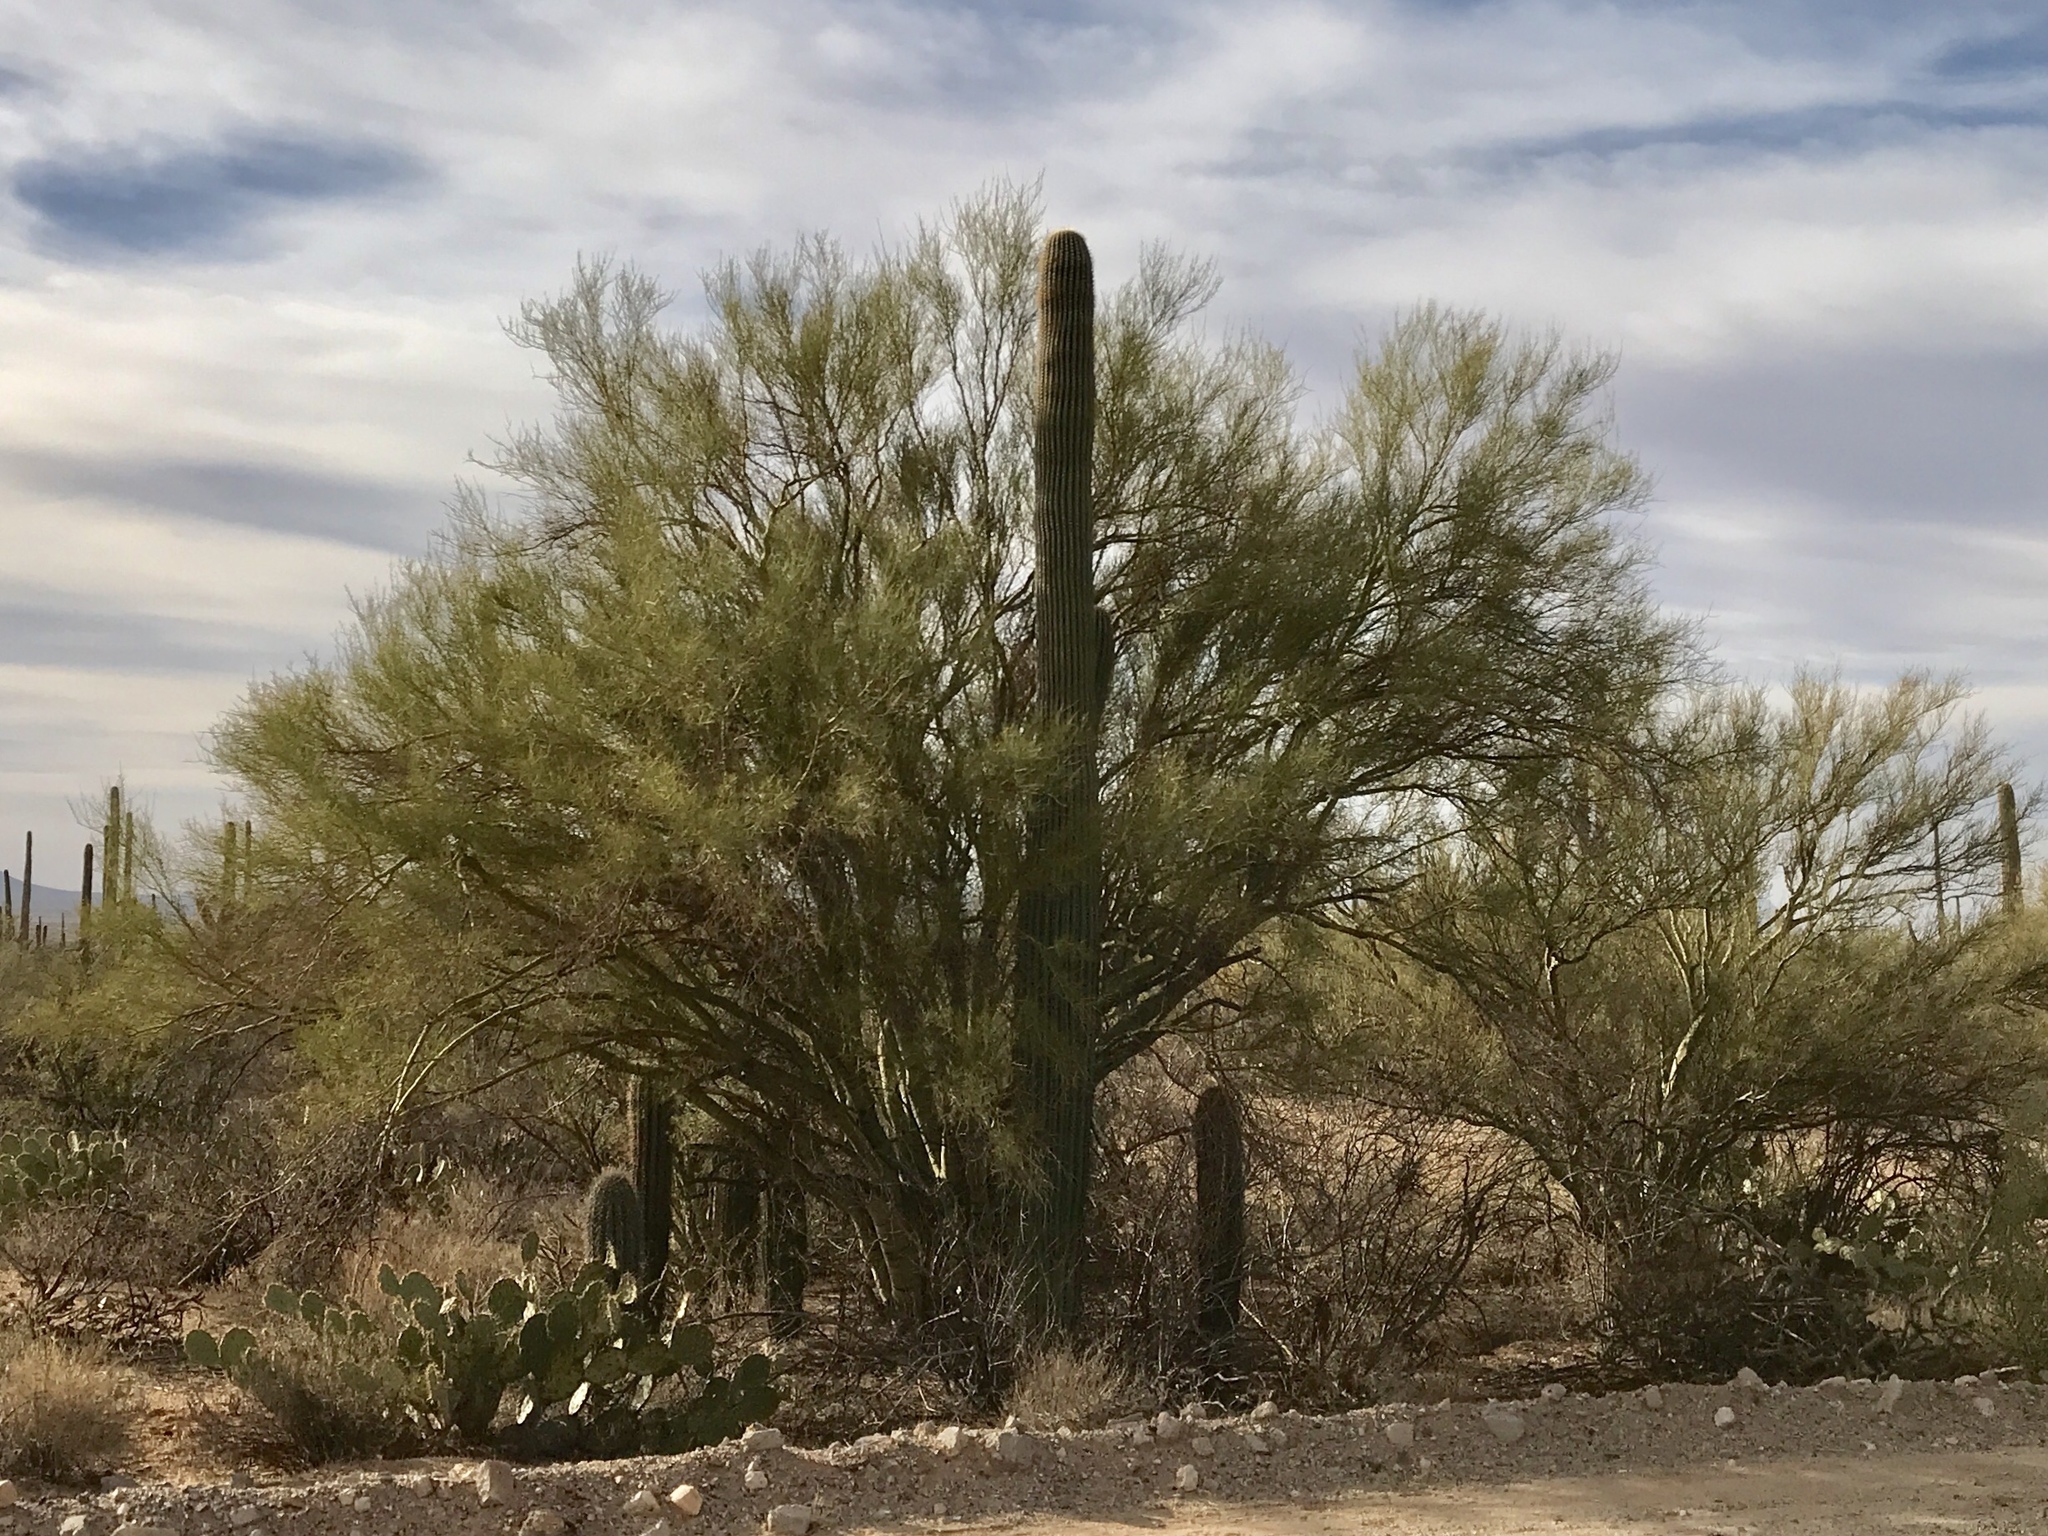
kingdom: Plantae
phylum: Tracheophyta
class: Magnoliopsida
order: Fabales
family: Fabaceae
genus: Parkinsonia
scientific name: Parkinsonia microphylla
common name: Yellow paloverde
